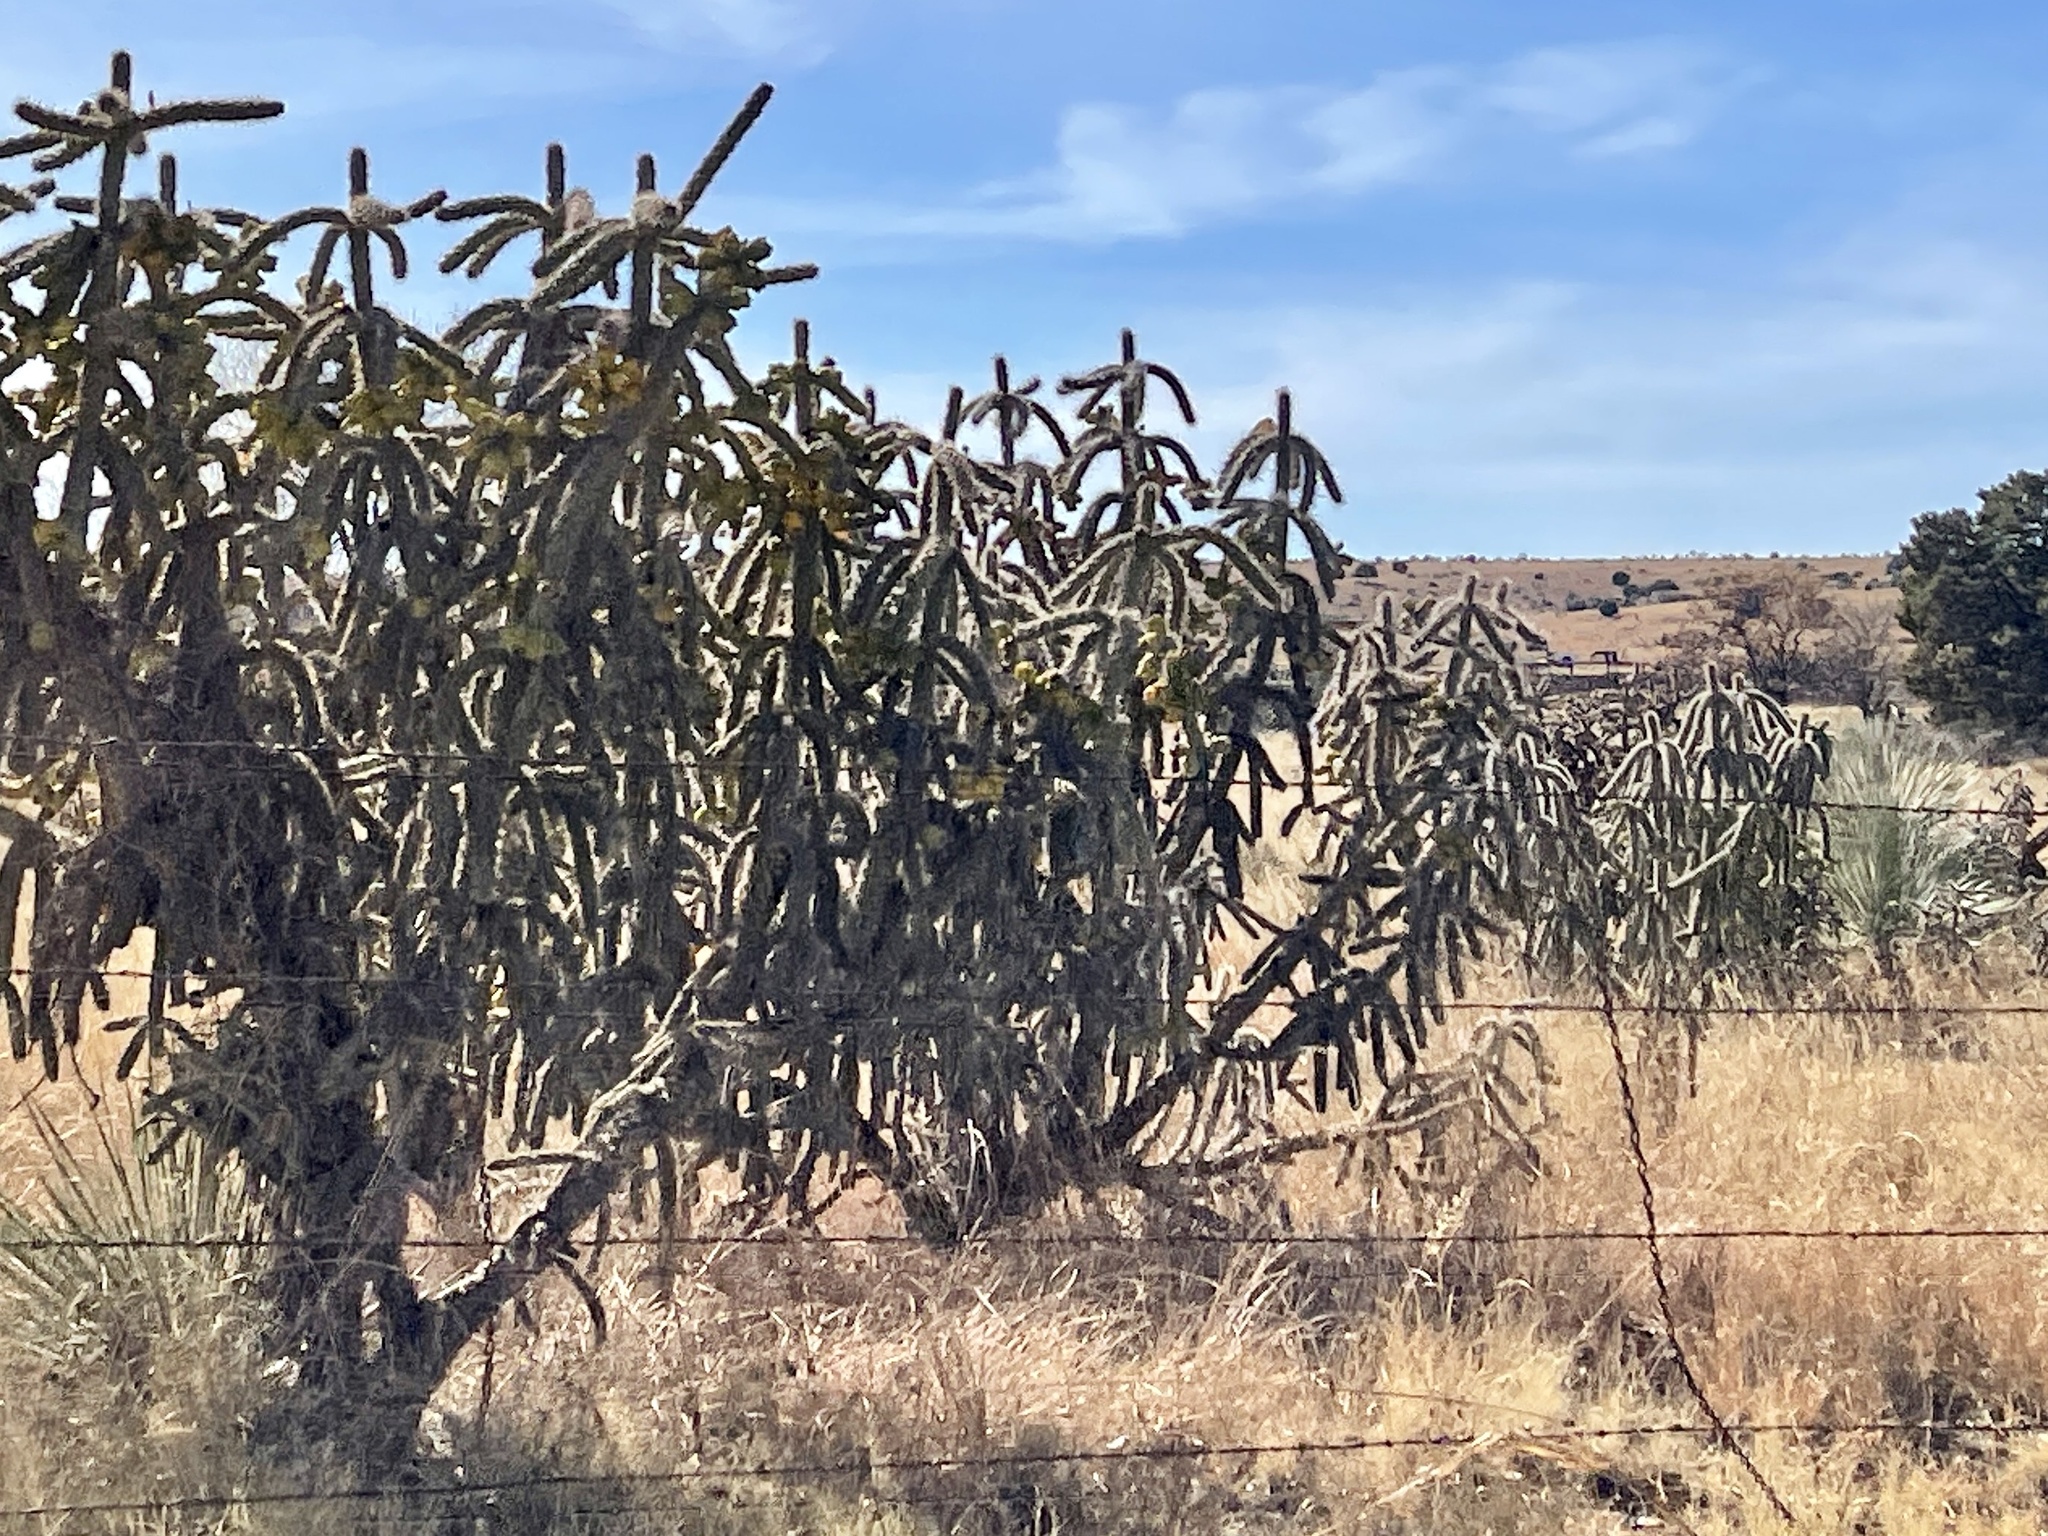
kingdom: Plantae
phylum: Tracheophyta
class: Magnoliopsida
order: Caryophyllales
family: Cactaceae
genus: Cylindropuntia
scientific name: Cylindropuntia imbricata
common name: Candelabrum cactus
